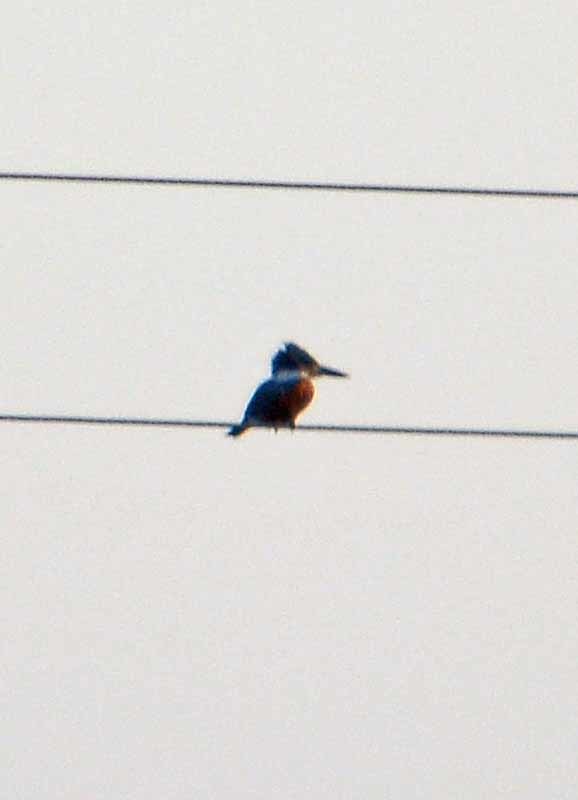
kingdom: Animalia
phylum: Chordata
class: Aves
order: Coraciiformes
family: Alcedinidae
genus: Megaceryle
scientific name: Megaceryle torquata
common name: Ringed kingfisher
